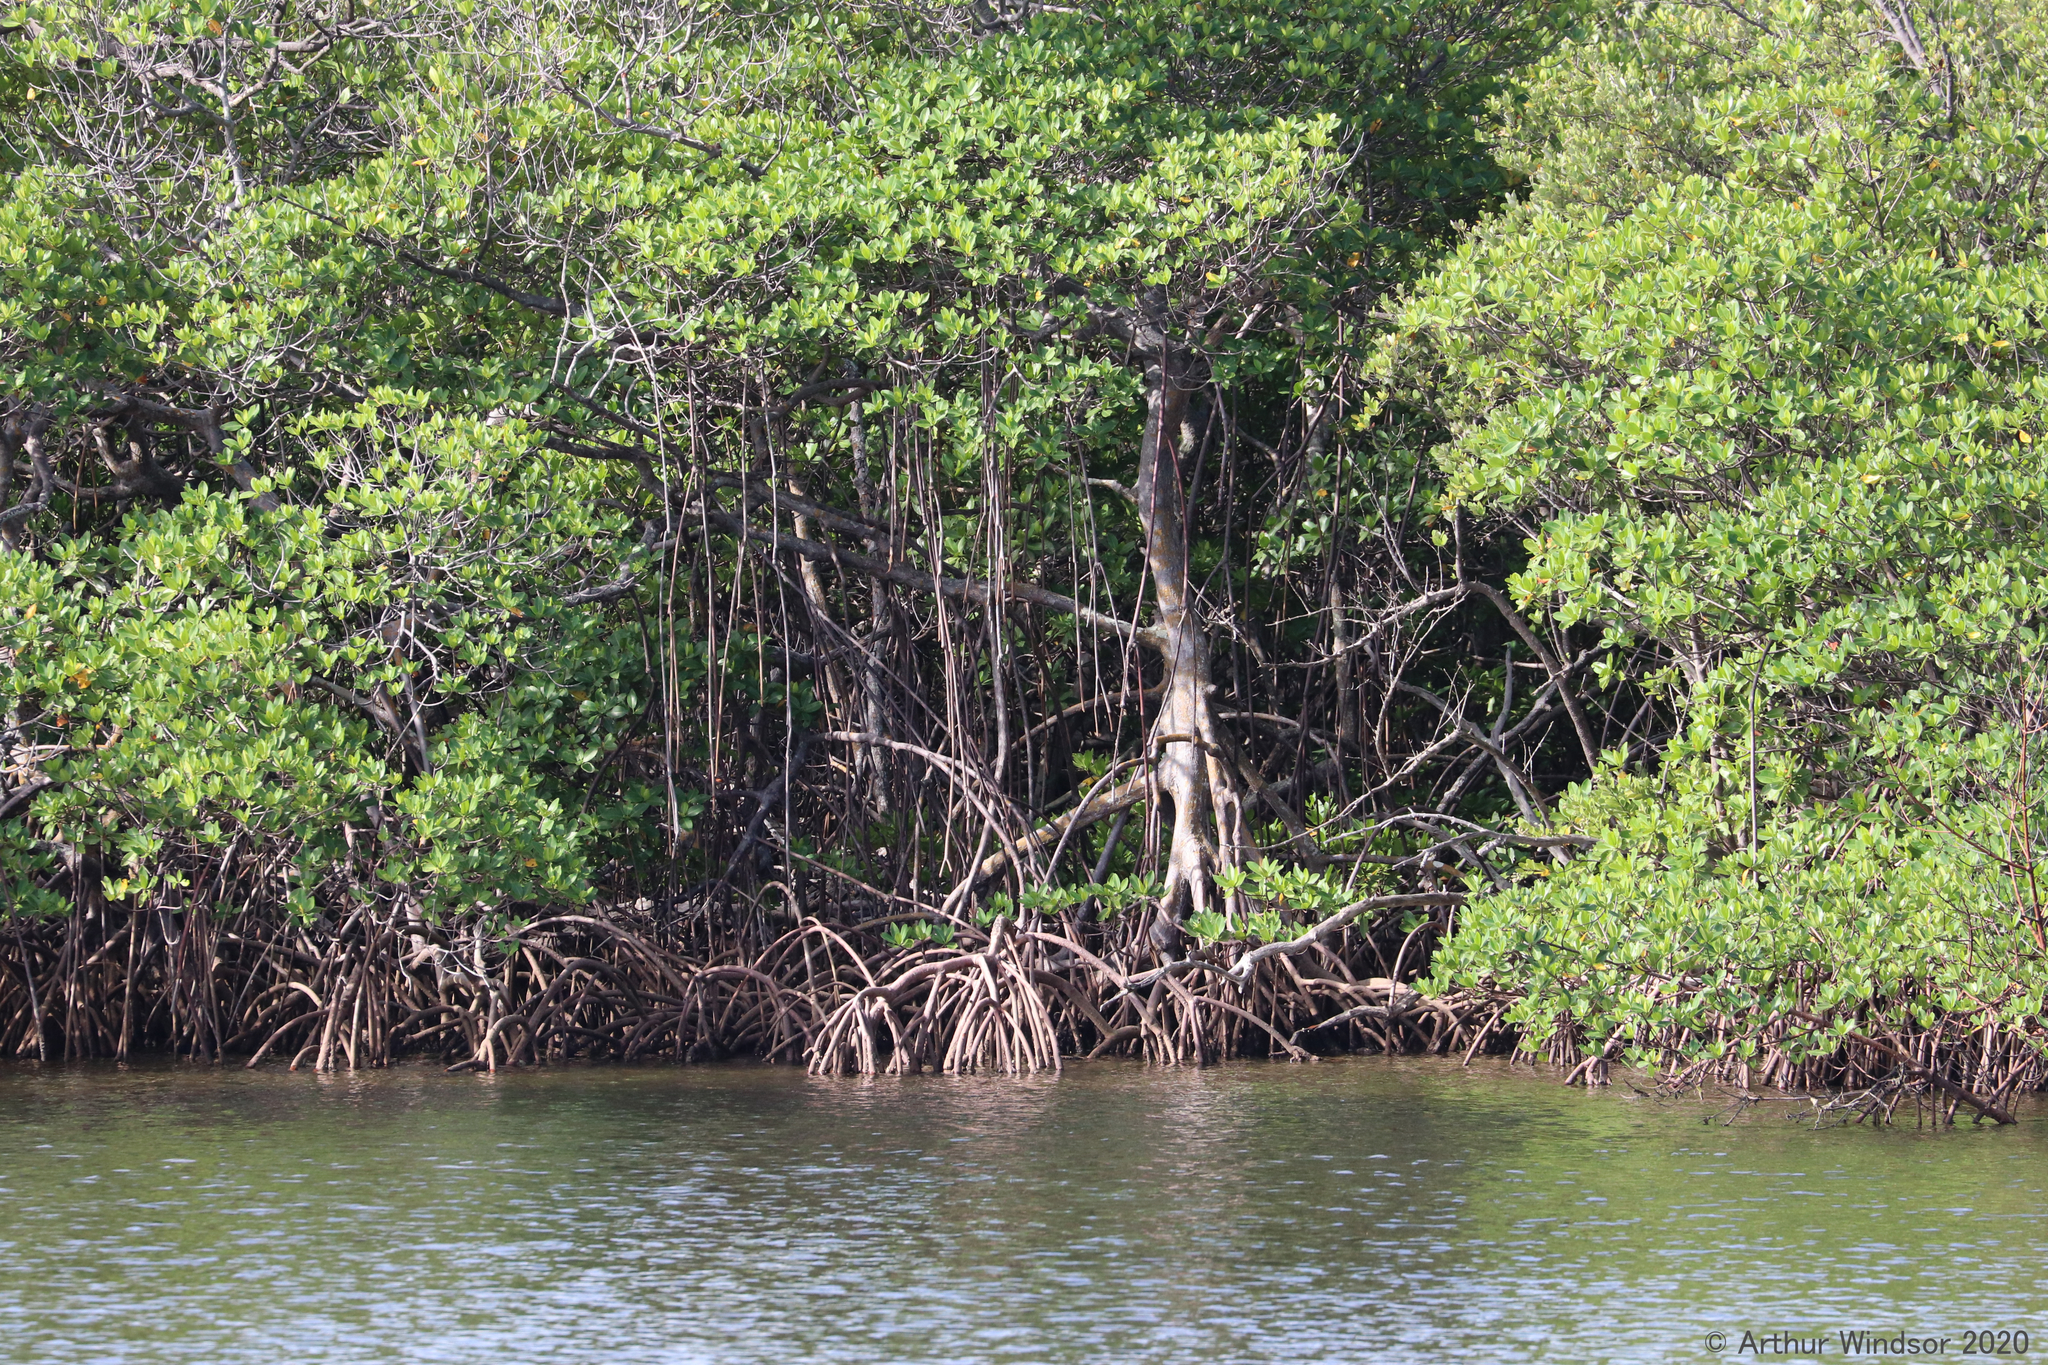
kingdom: Plantae
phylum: Tracheophyta
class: Magnoliopsida
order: Malpighiales
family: Rhizophoraceae
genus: Rhizophora
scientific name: Rhizophora mangle
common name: Red mangrove
